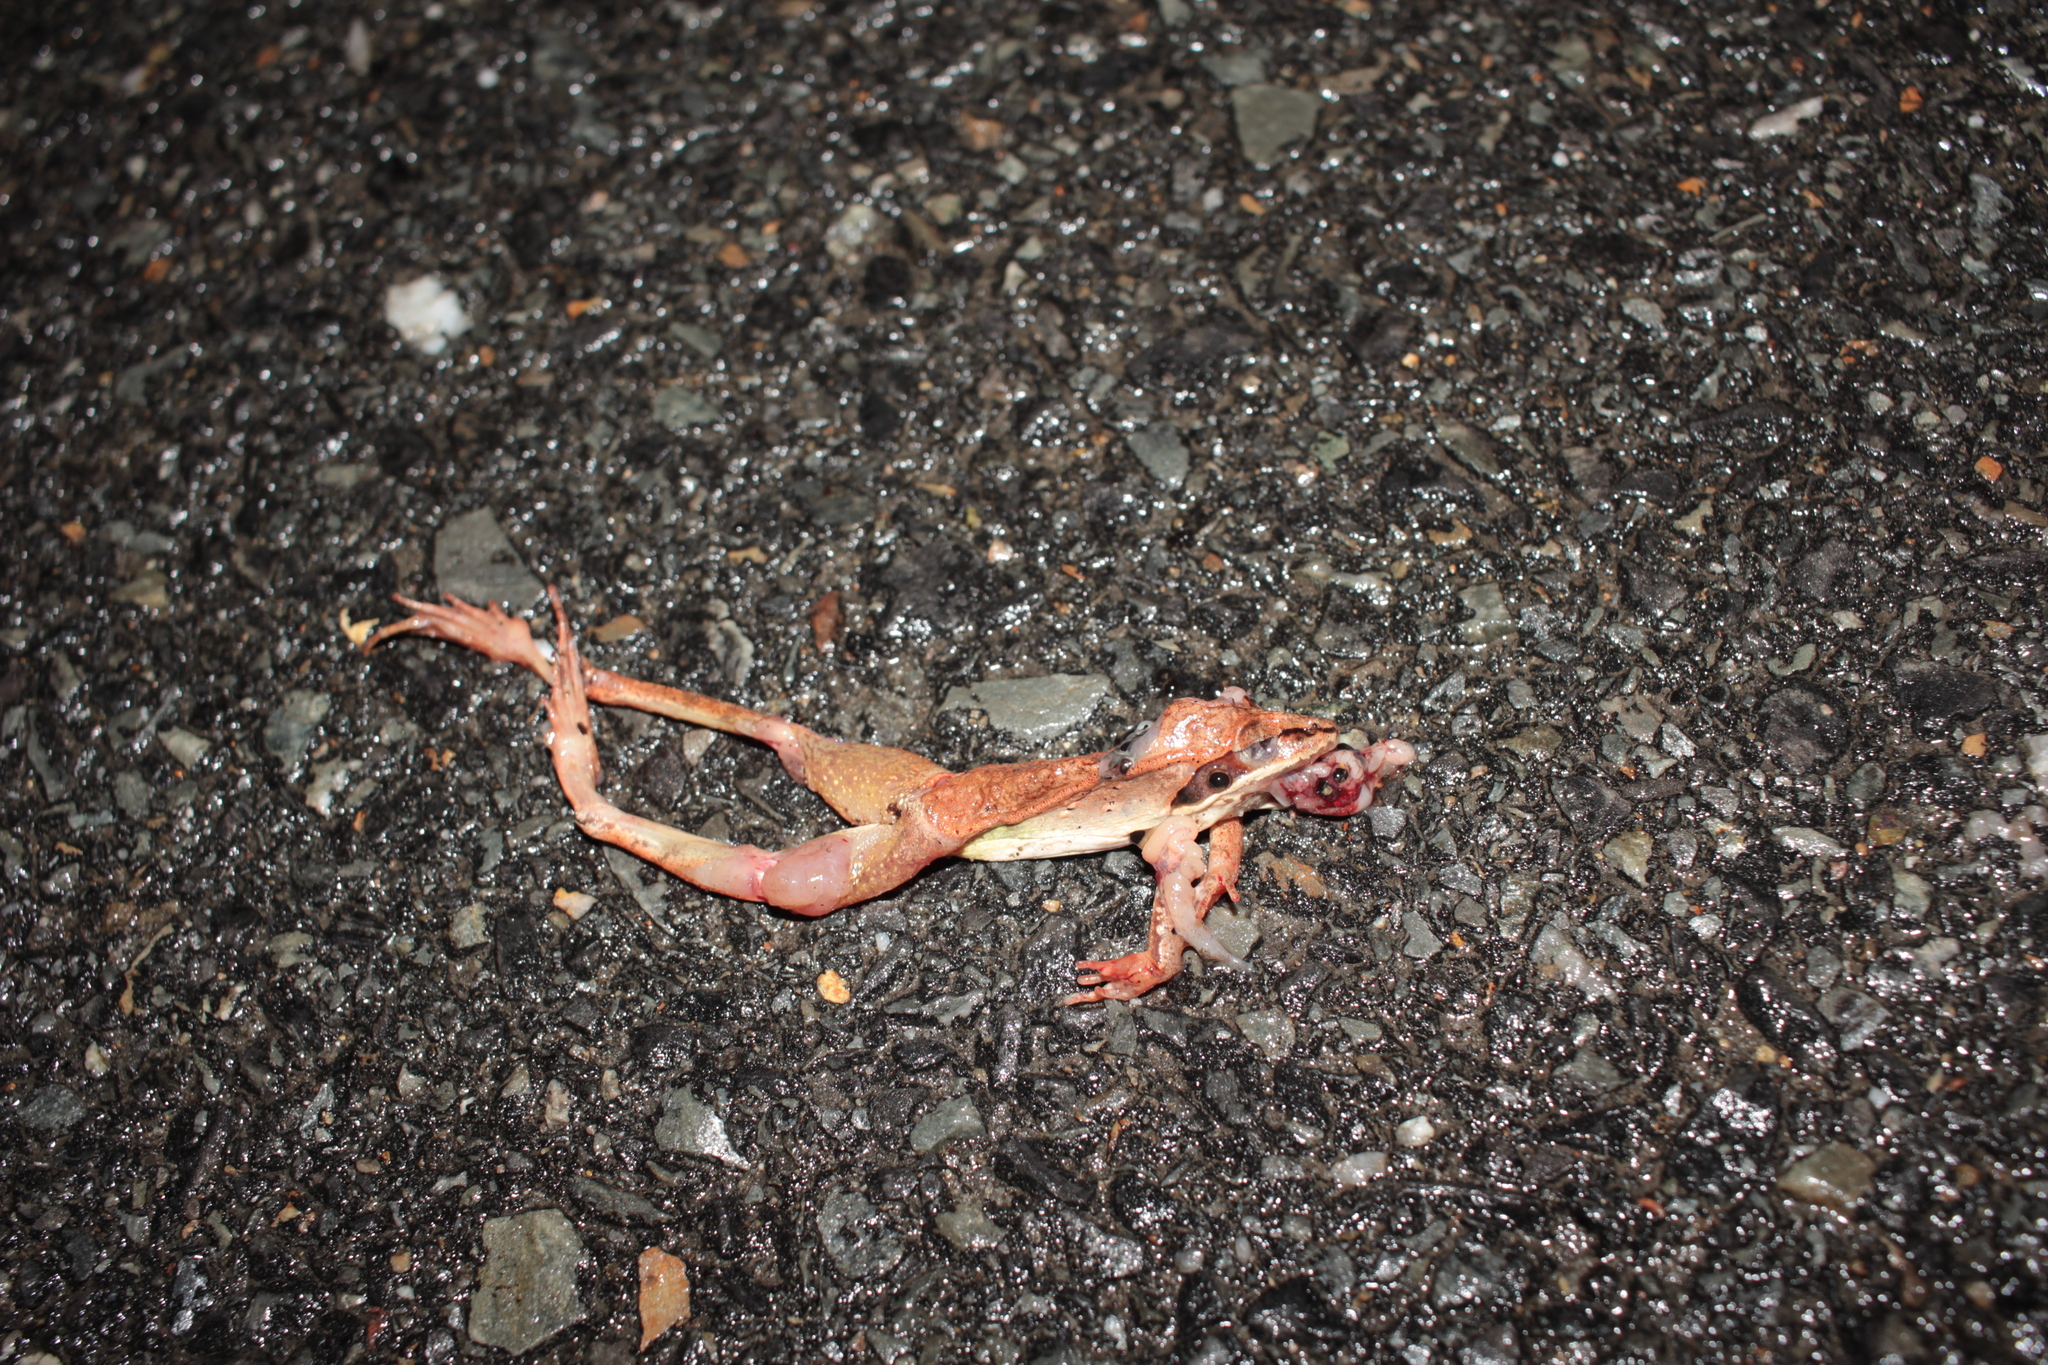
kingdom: Animalia
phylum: Chordata
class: Amphibia
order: Anura
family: Ranidae
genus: Lithobates
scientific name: Lithobates sylvaticus
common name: Wood frog
